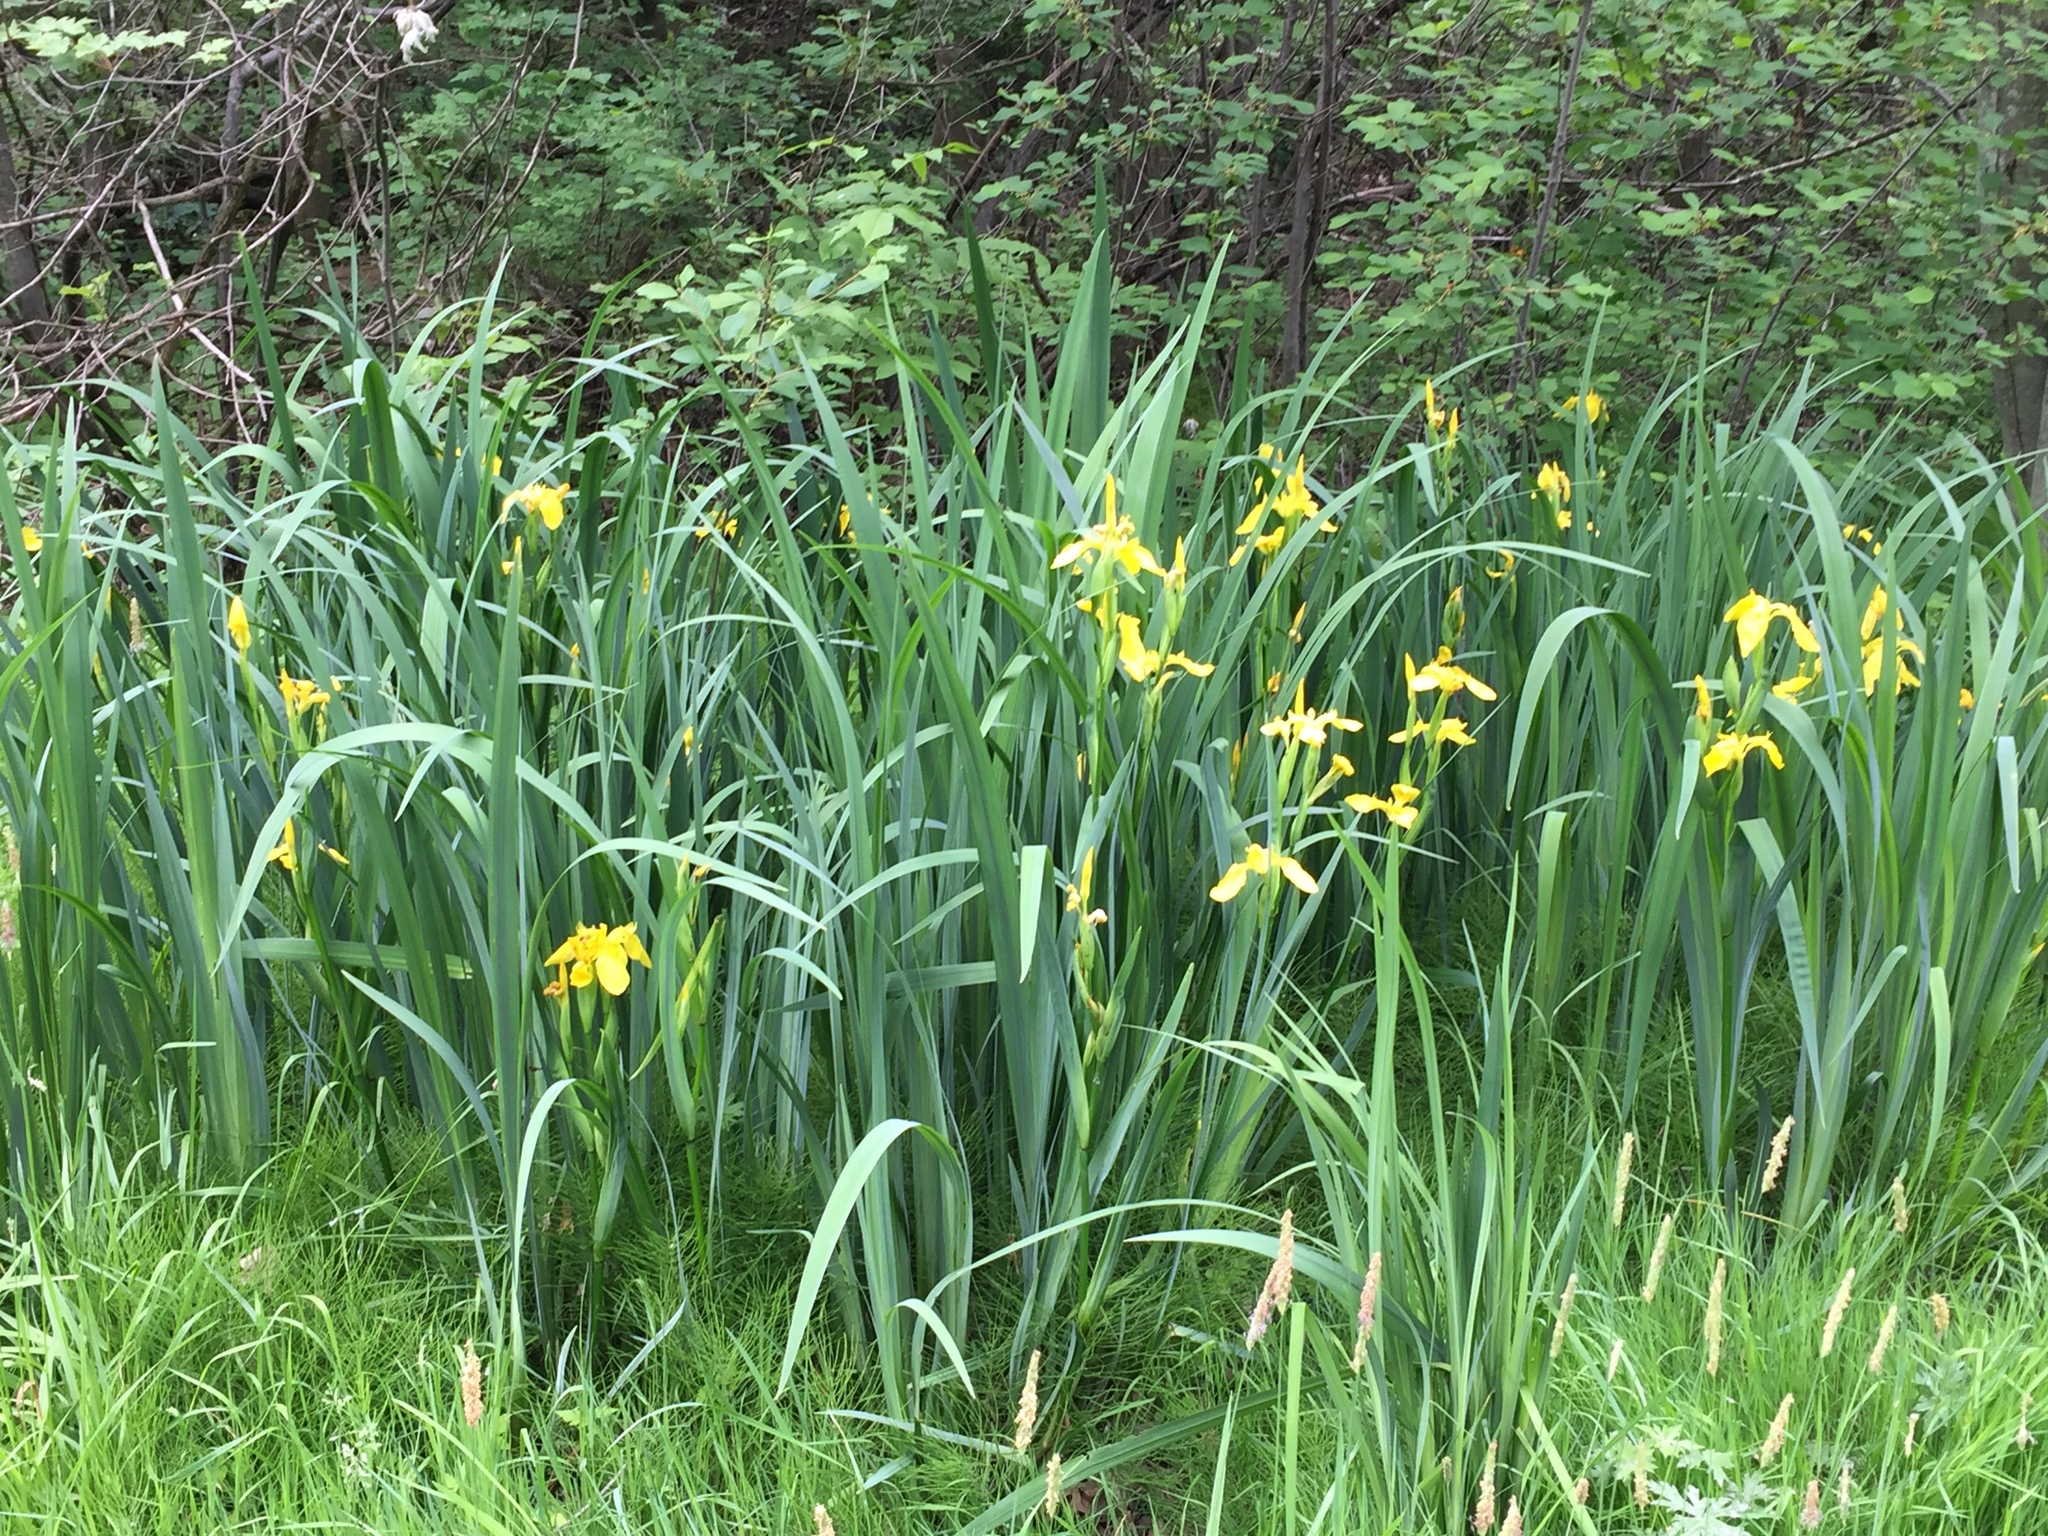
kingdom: Plantae
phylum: Tracheophyta
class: Liliopsida
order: Asparagales
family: Iridaceae
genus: Iris
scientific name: Iris pseudacorus
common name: Yellow flag
